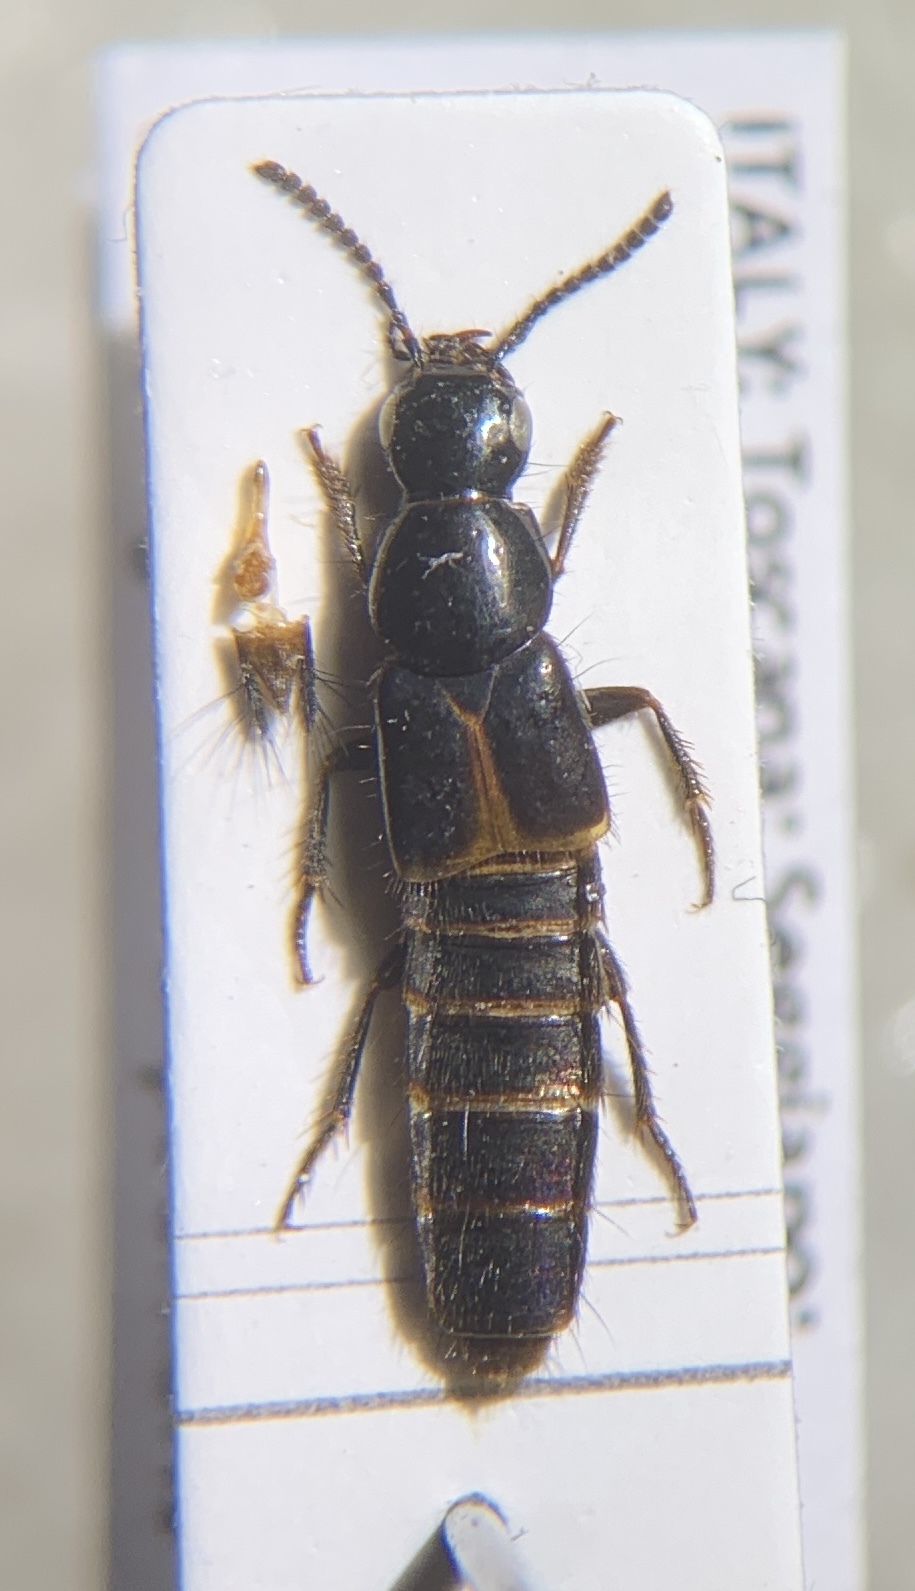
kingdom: Animalia
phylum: Arthropoda
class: Insecta
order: Coleoptera
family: Staphylinidae
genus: Quedius
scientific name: Quedius cinctus
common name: Large rove beetle
